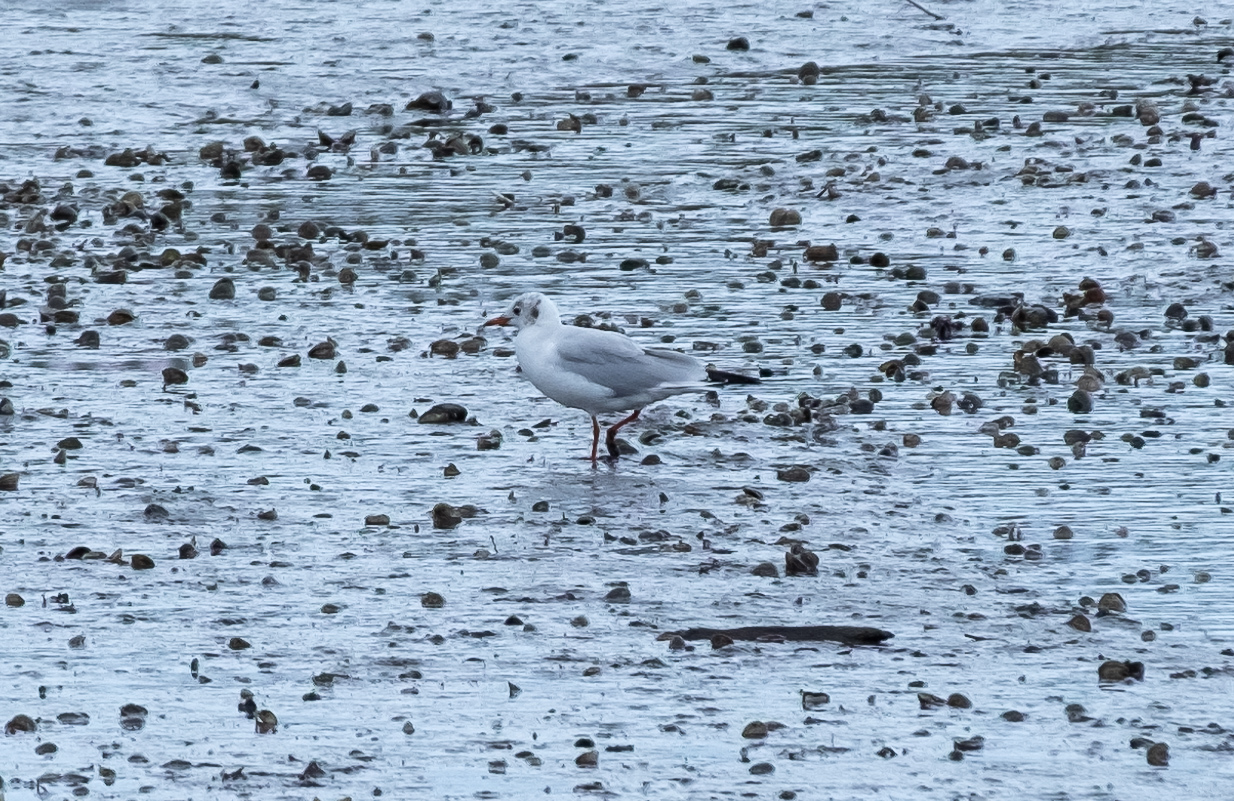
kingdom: Animalia
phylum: Chordata
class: Aves
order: Charadriiformes
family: Laridae
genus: Chroicocephalus
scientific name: Chroicocephalus ridibundus
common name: Black-headed gull
